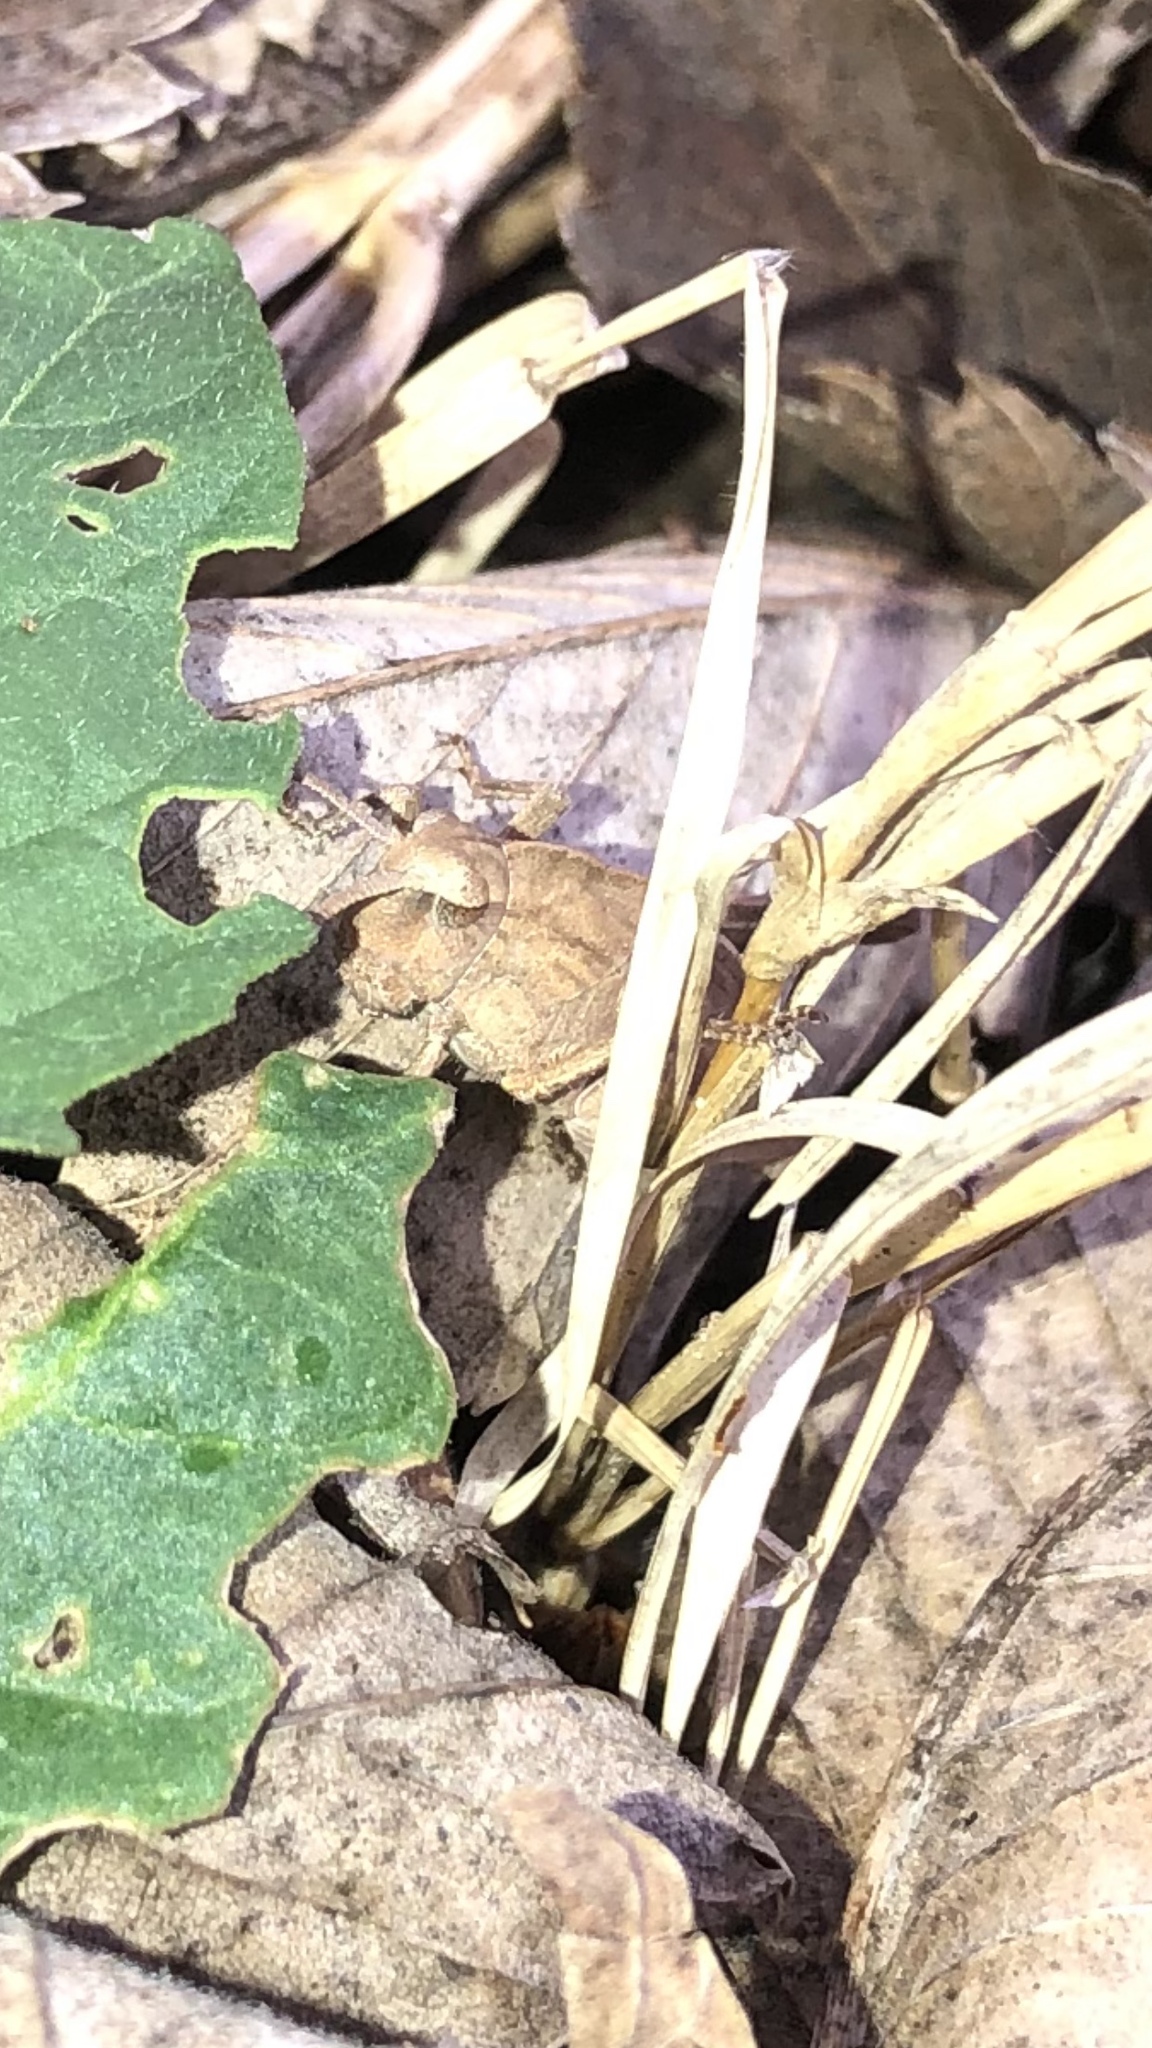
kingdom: Animalia
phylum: Arthropoda
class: Insecta
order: Orthoptera
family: Acrididae
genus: Chortophaga
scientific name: Chortophaga viridifasciata
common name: Green-striped grasshopper
